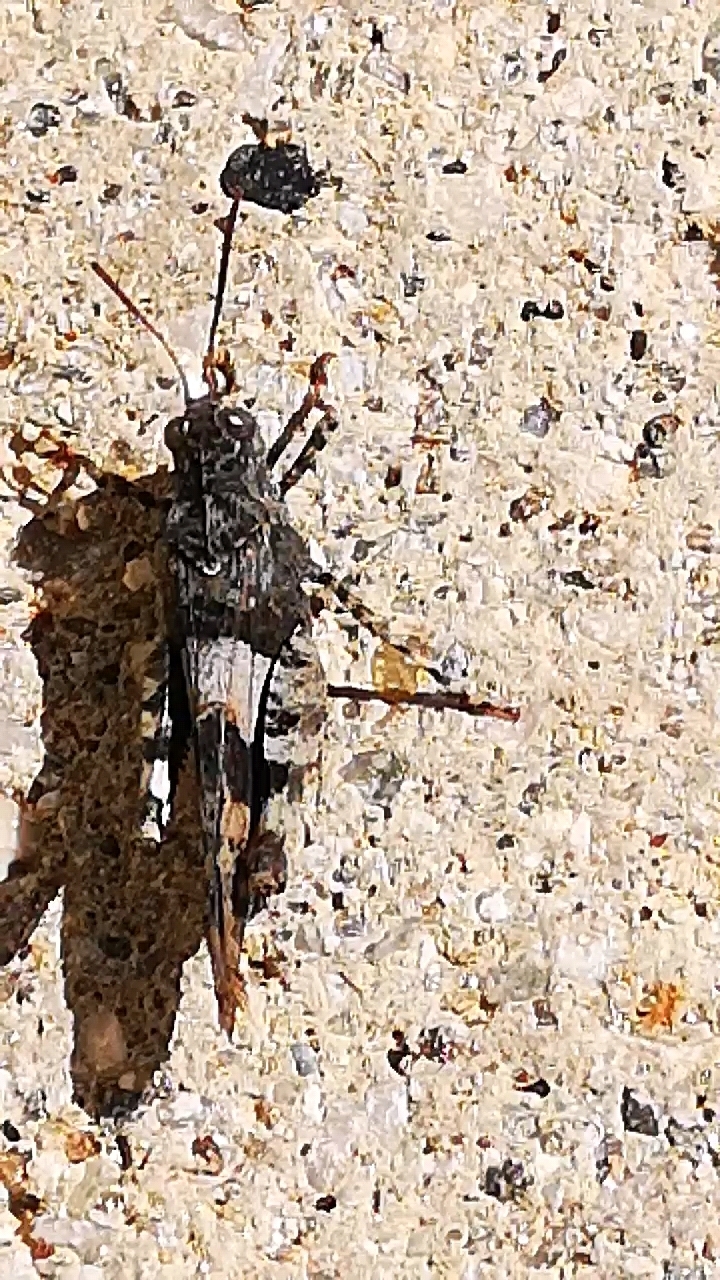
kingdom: Animalia
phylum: Arthropoda
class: Insecta
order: Orthoptera
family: Acrididae
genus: Oedipoda
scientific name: Oedipoda caerulescens
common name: Blue-winged grasshopper
